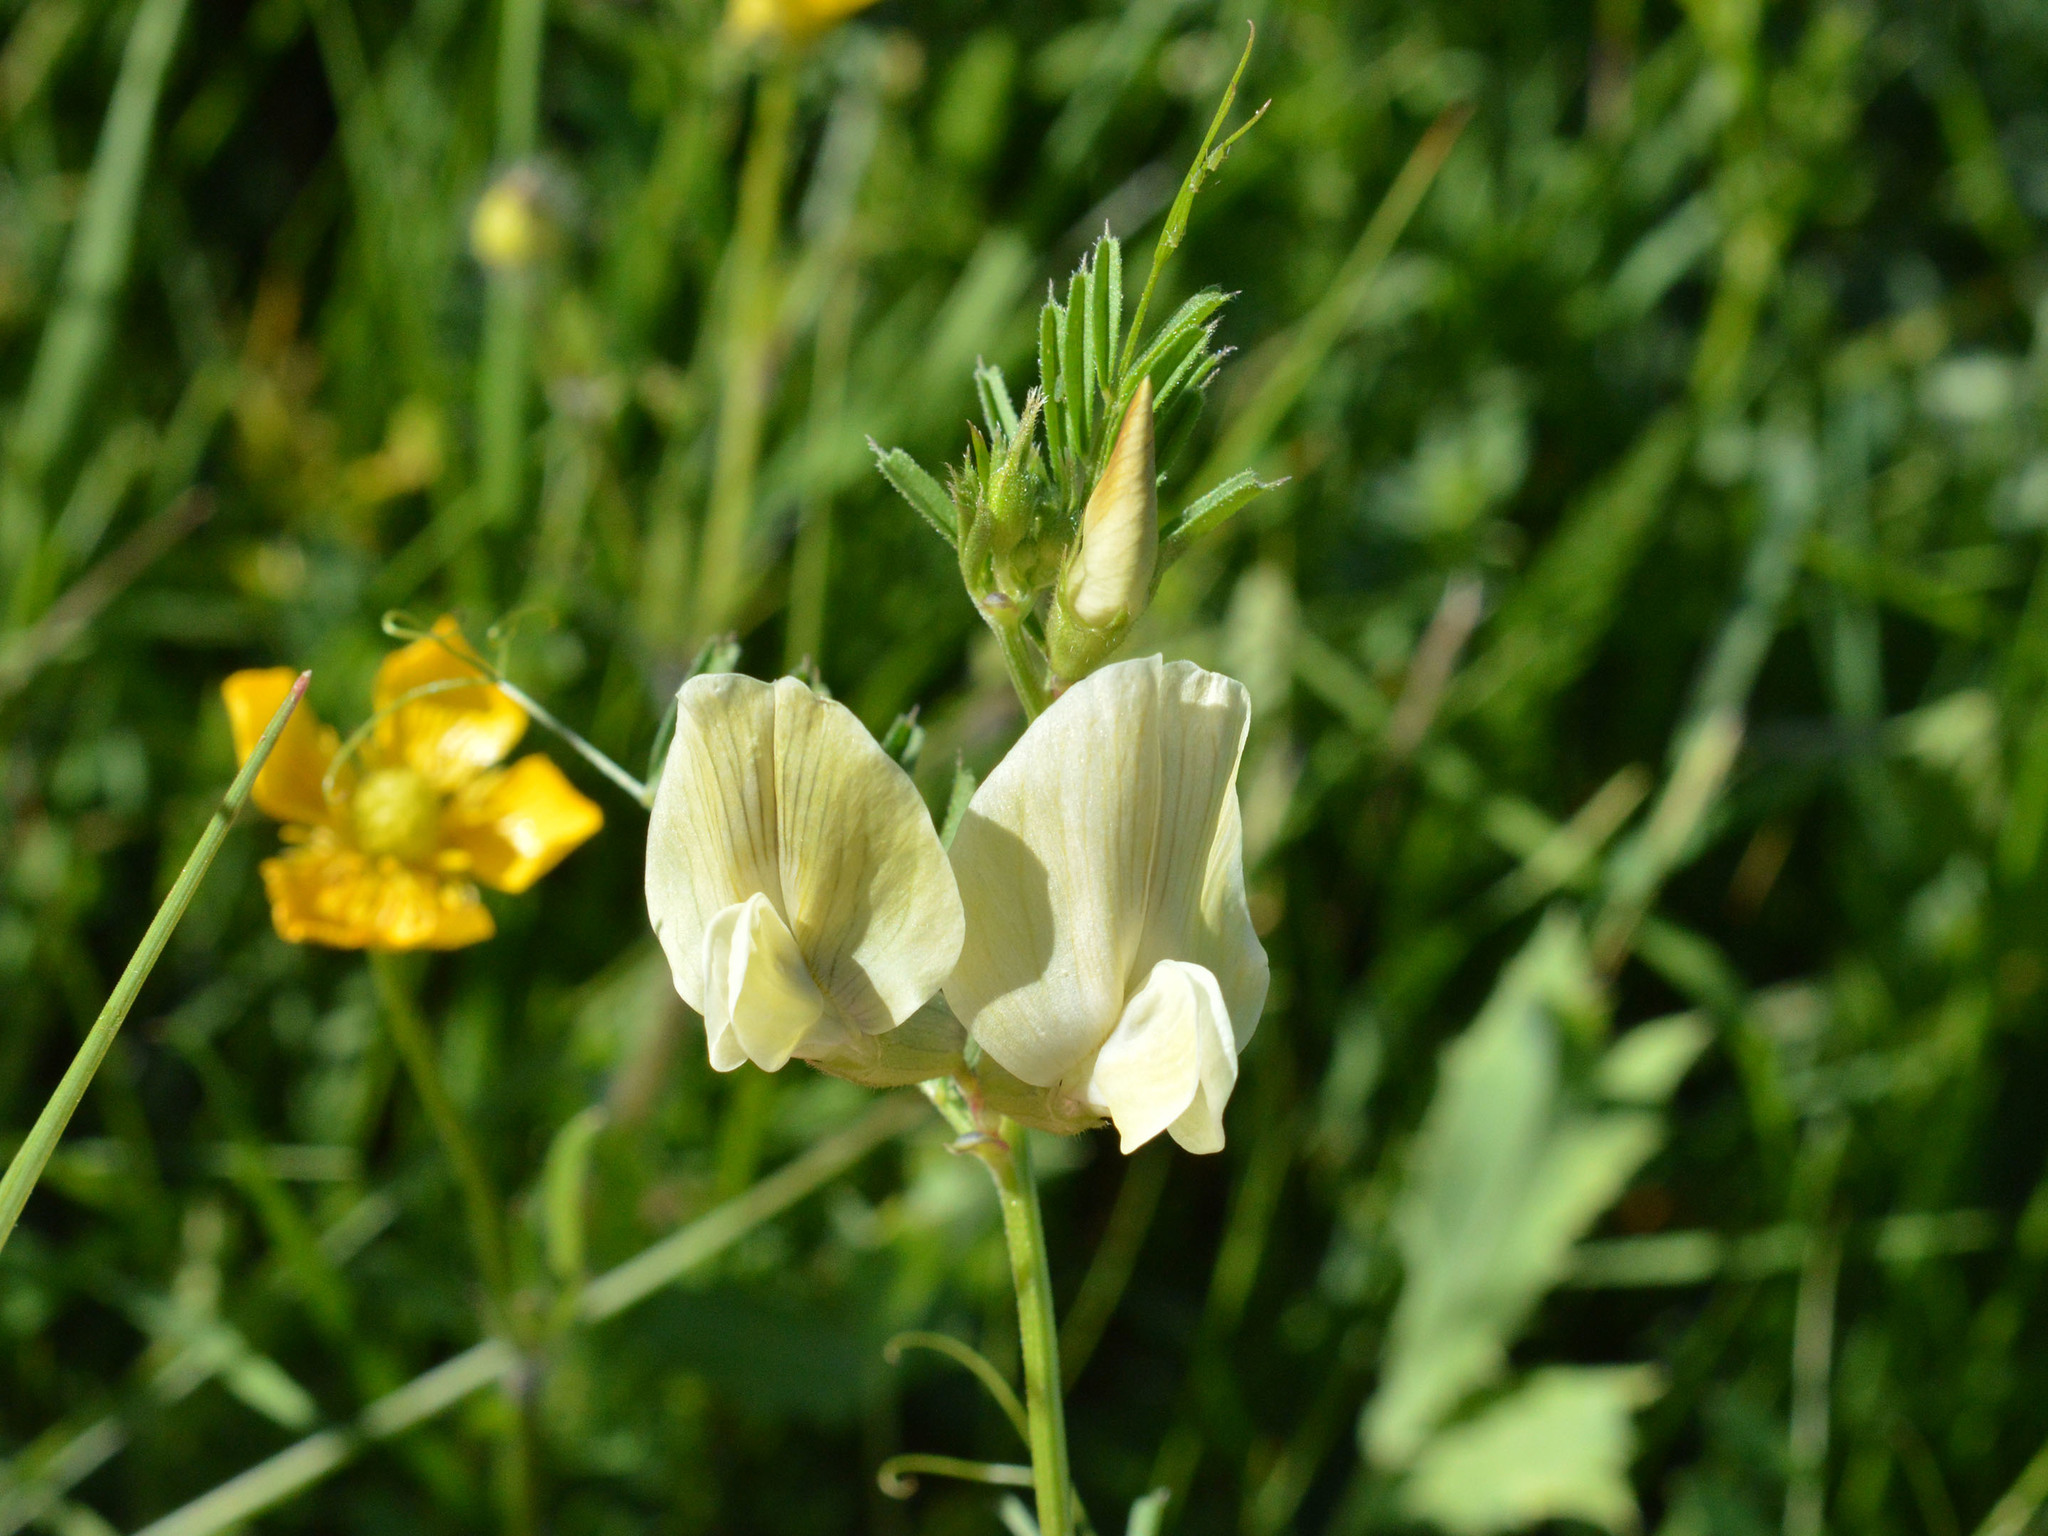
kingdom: Plantae
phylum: Tracheophyta
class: Magnoliopsida
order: Fabales
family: Fabaceae
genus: Vicia
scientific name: Vicia grandiflora
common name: Large yellow vetch
